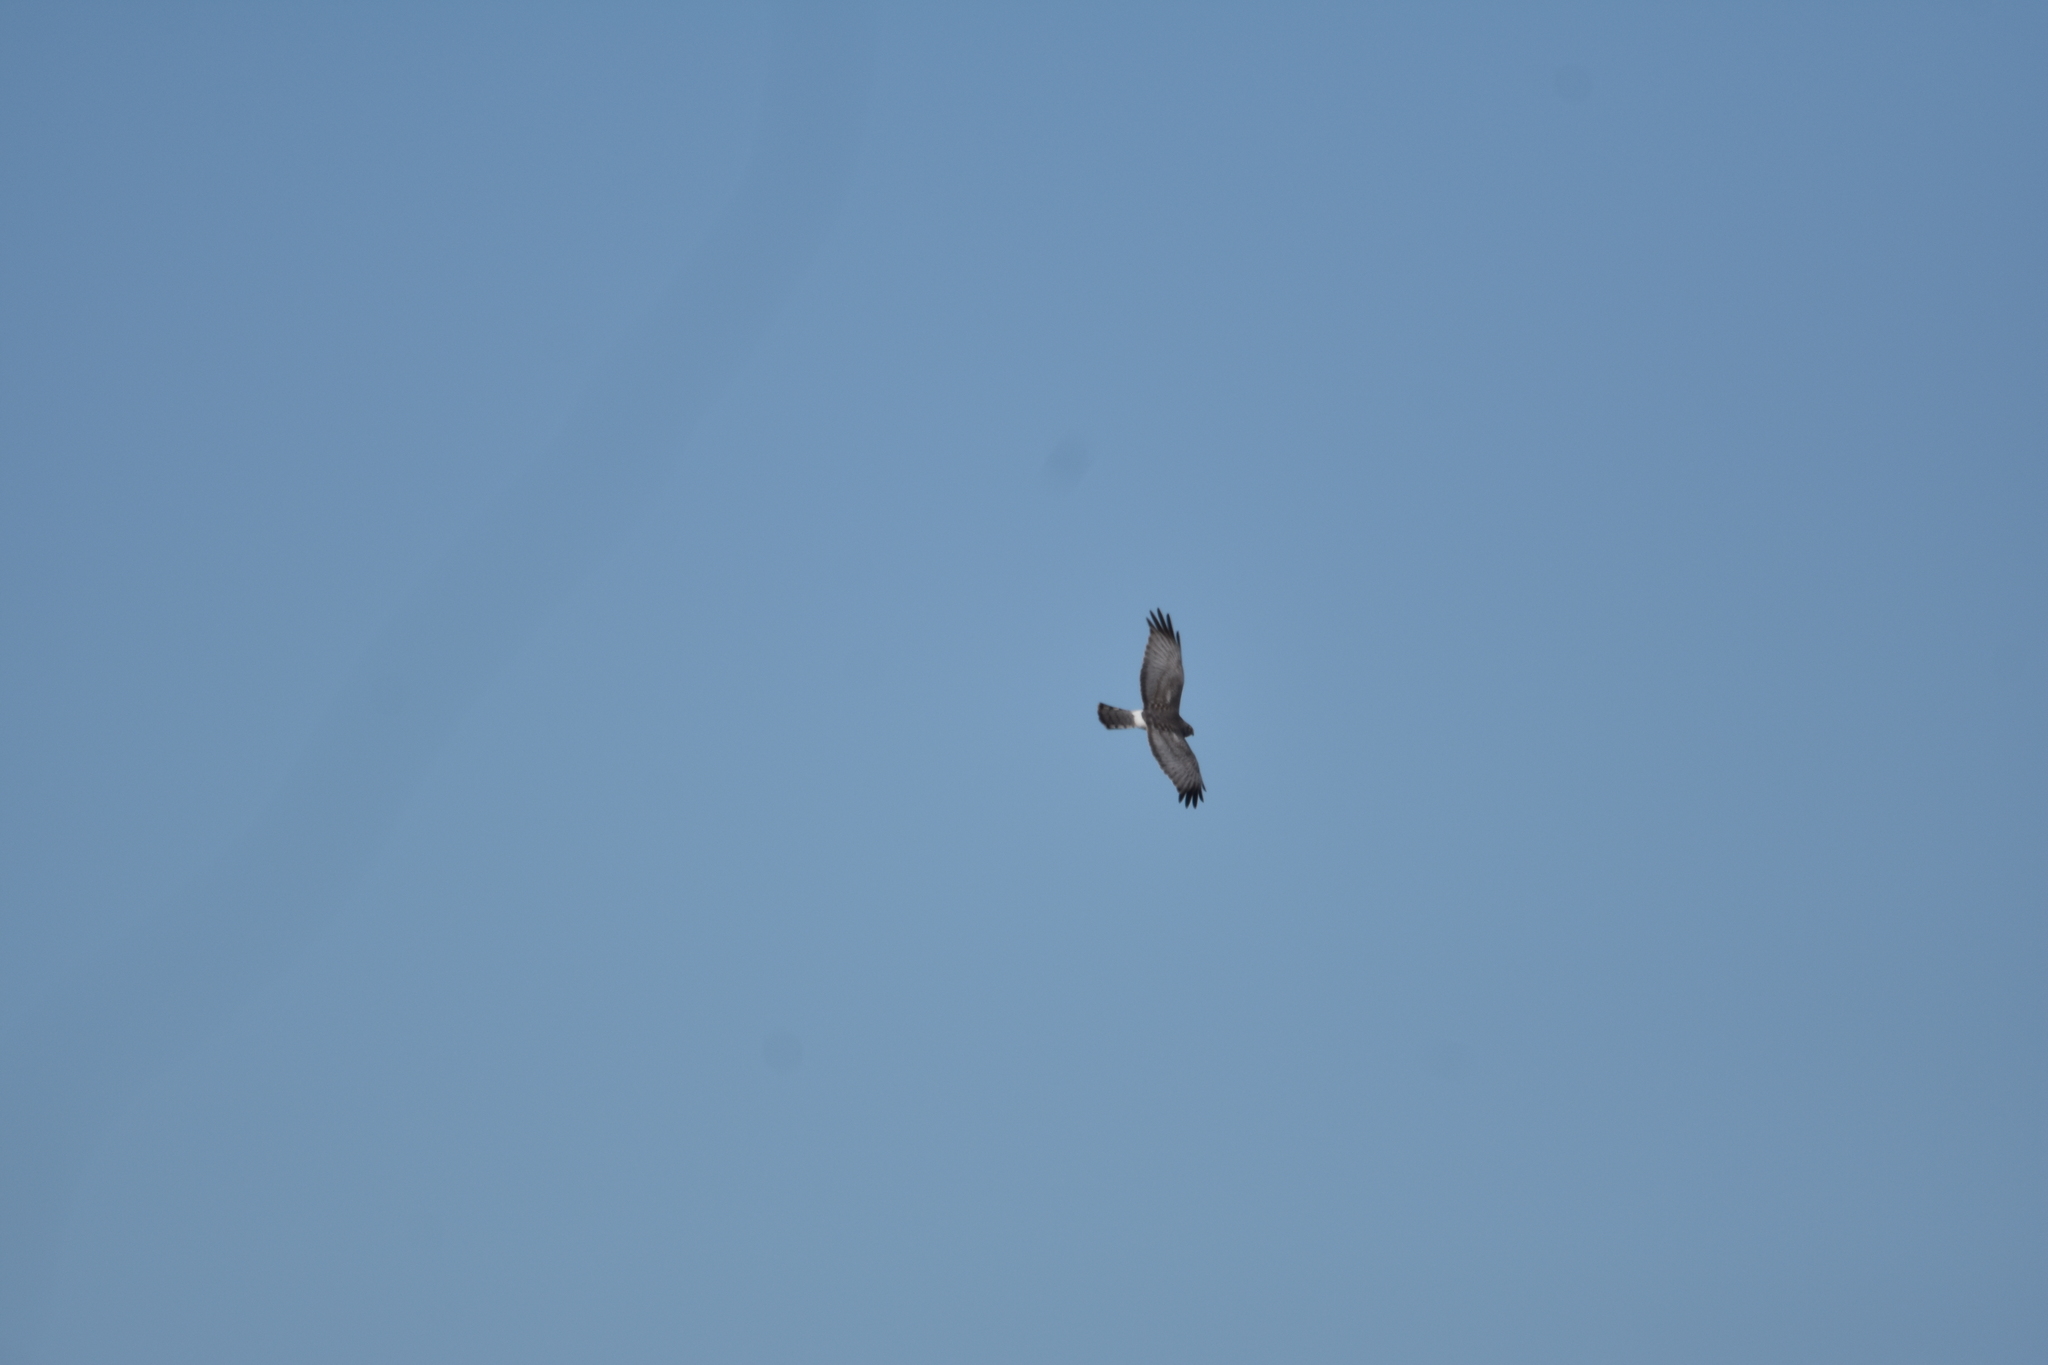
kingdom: Animalia
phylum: Chordata
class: Aves
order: Accipitriformes
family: Accipitridae
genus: Circus
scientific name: Circus cyaneus
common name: Hen harrier
